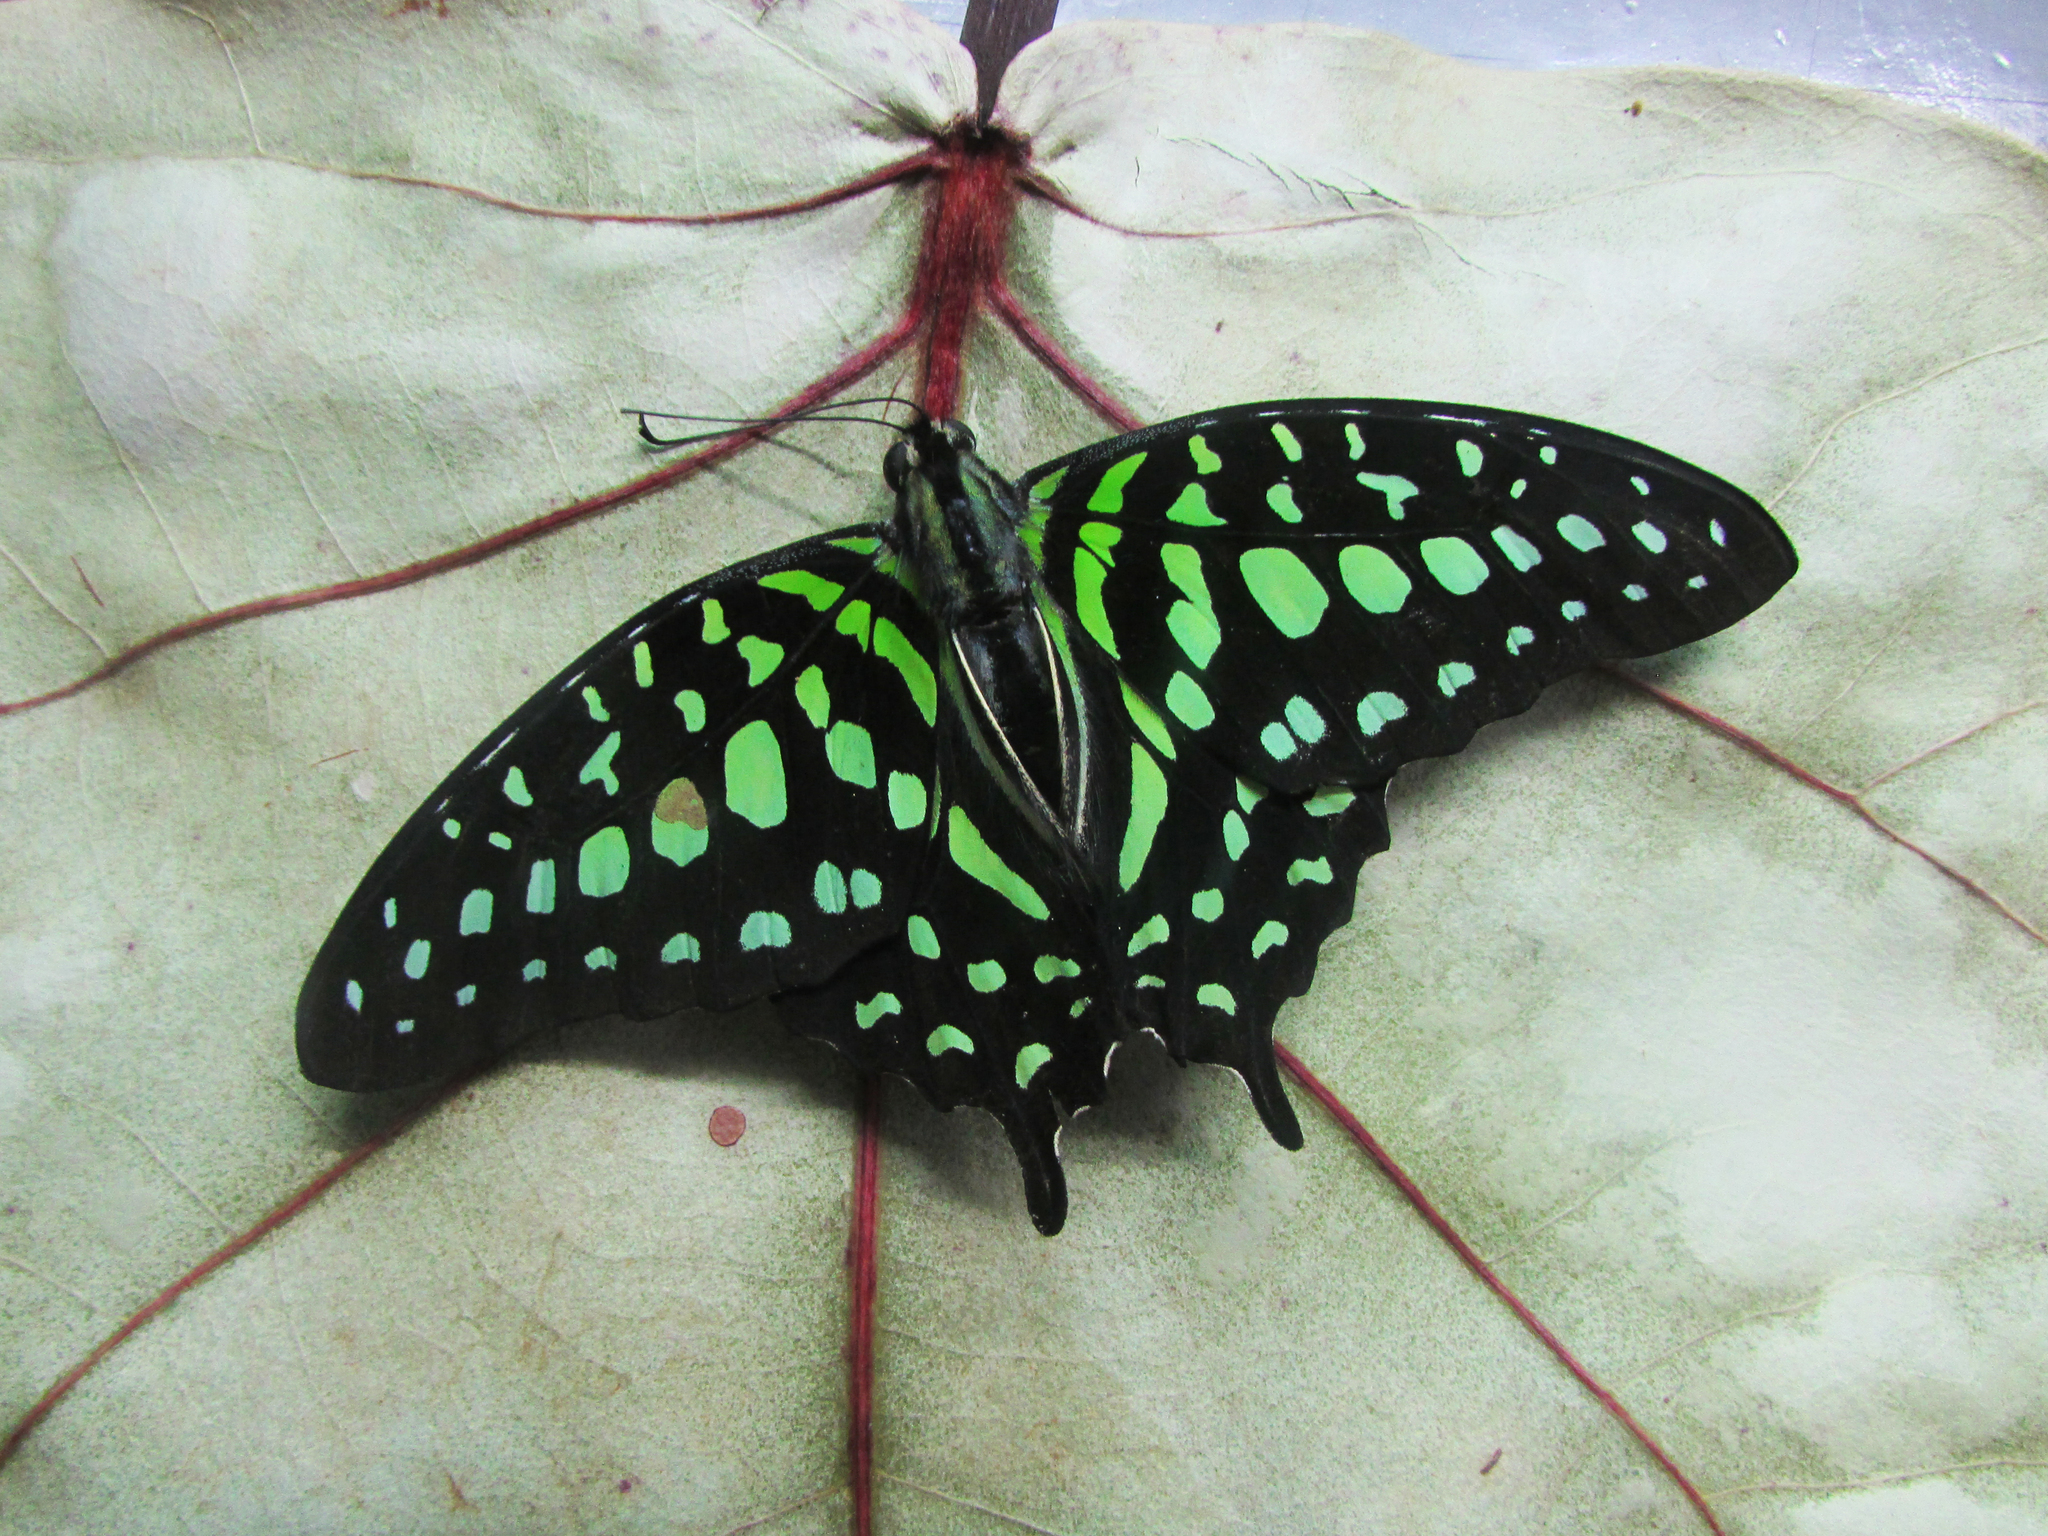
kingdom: Animalia
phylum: Arthropoda
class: Insecta
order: Lepidoptera
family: Papilionidae
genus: Graphium
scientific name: Graphium agamemnon
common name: Tailed jay
